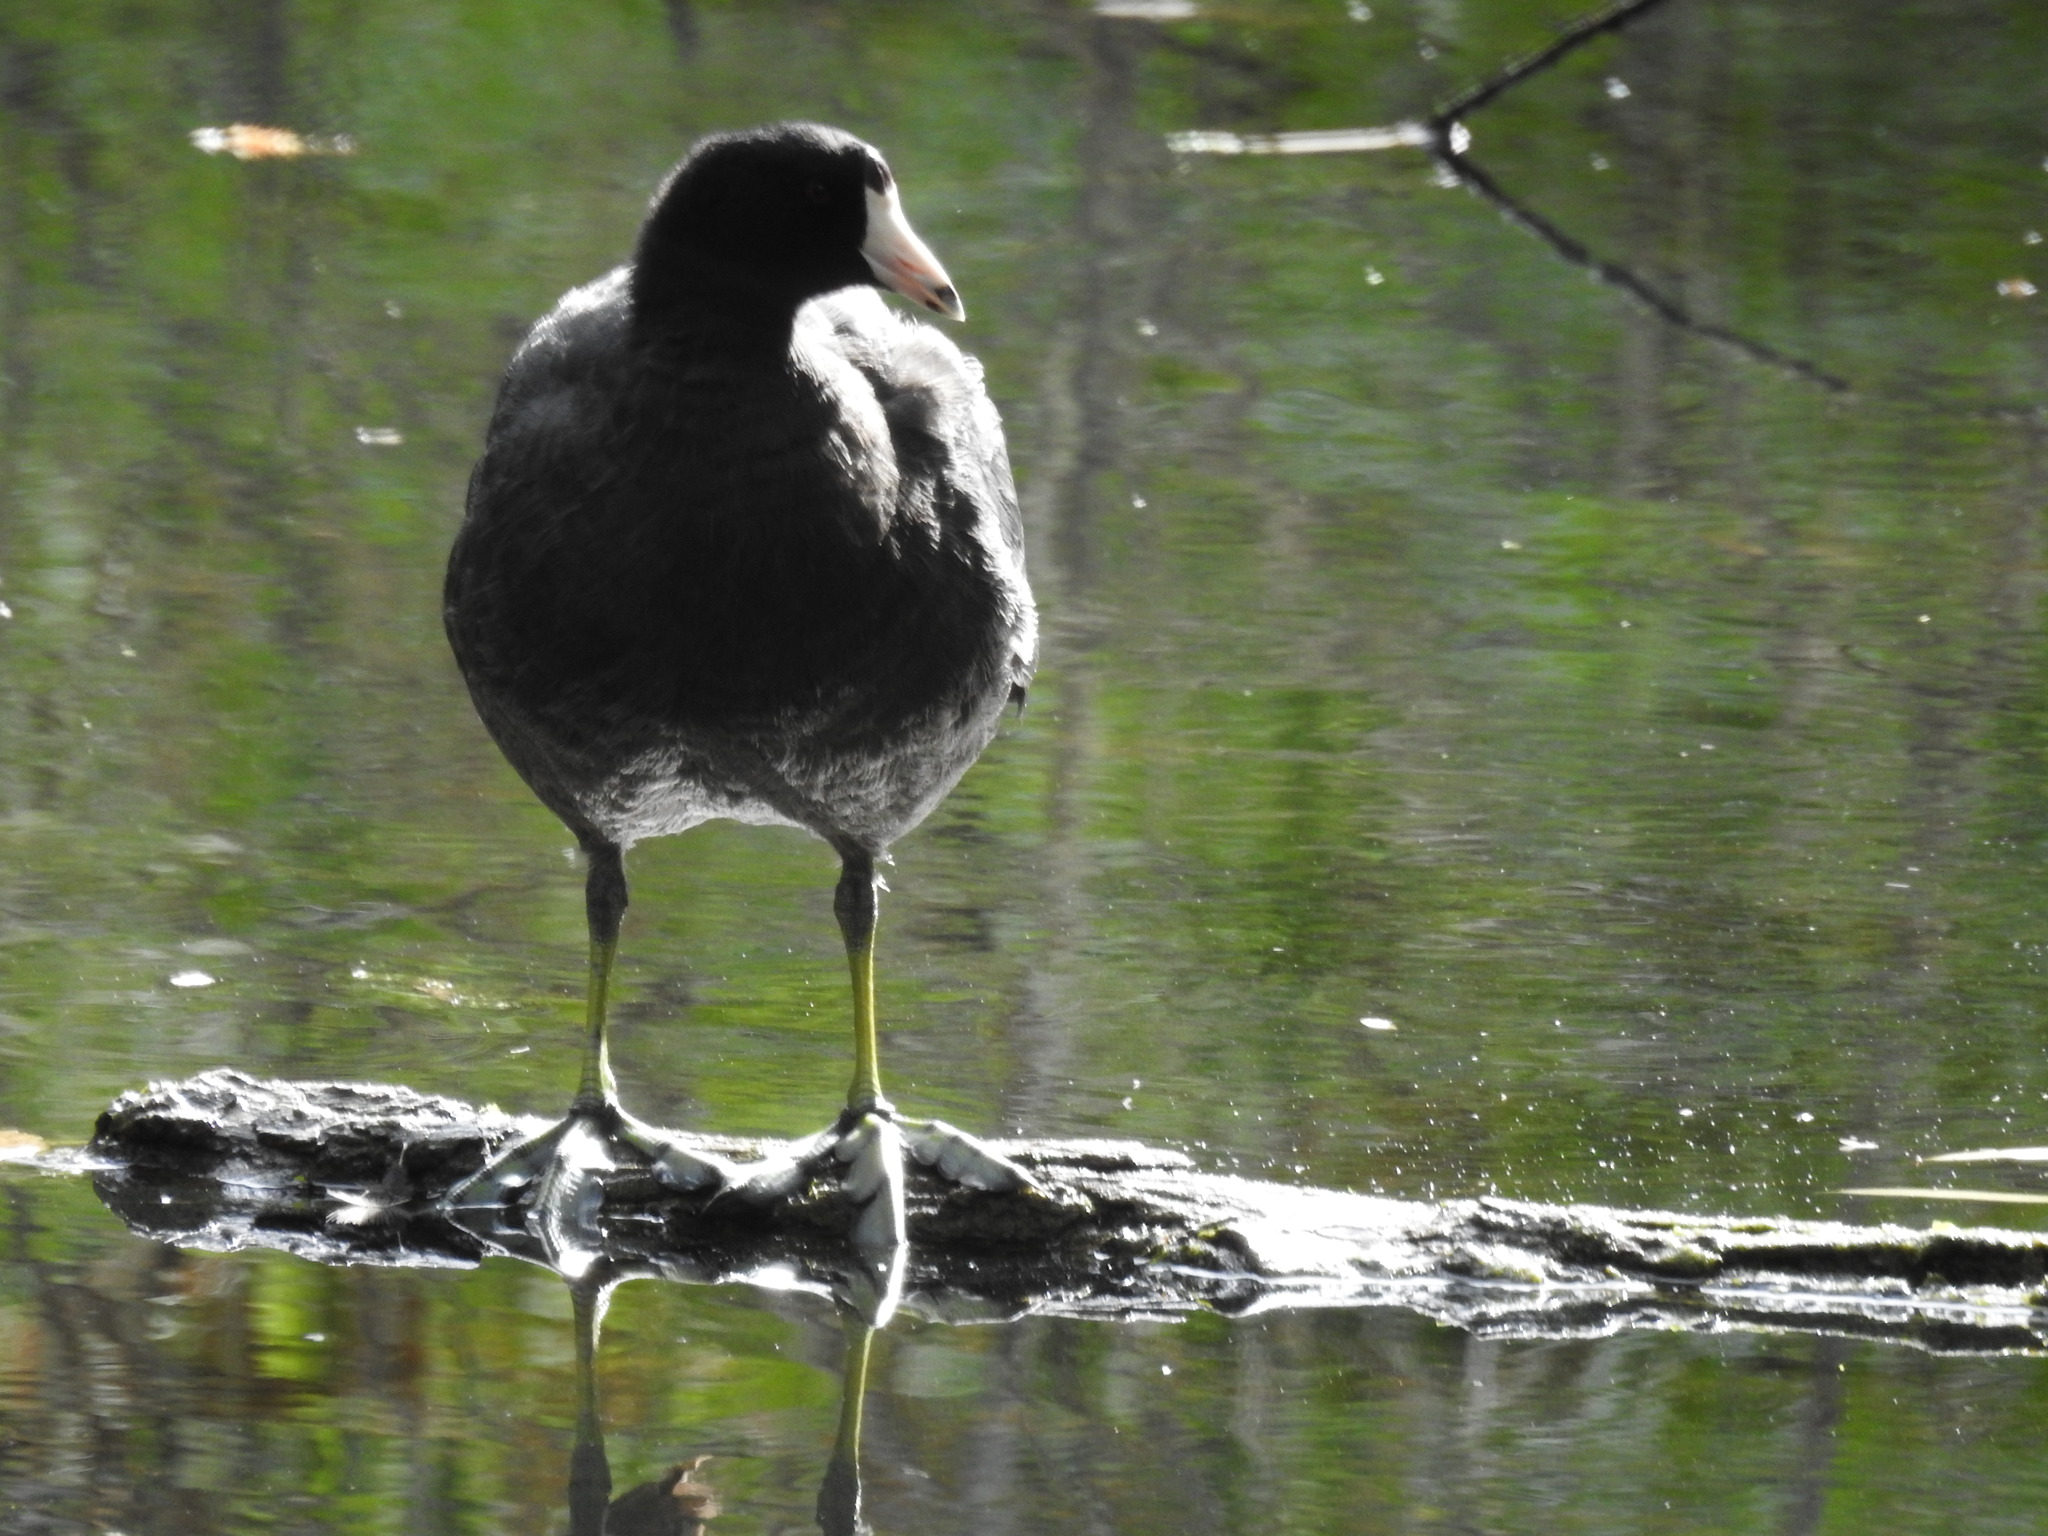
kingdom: Animalia
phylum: Chordata
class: Aves
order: Gruiformes
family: Rallidae
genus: Fulica
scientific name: Fulica americana
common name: American coot
